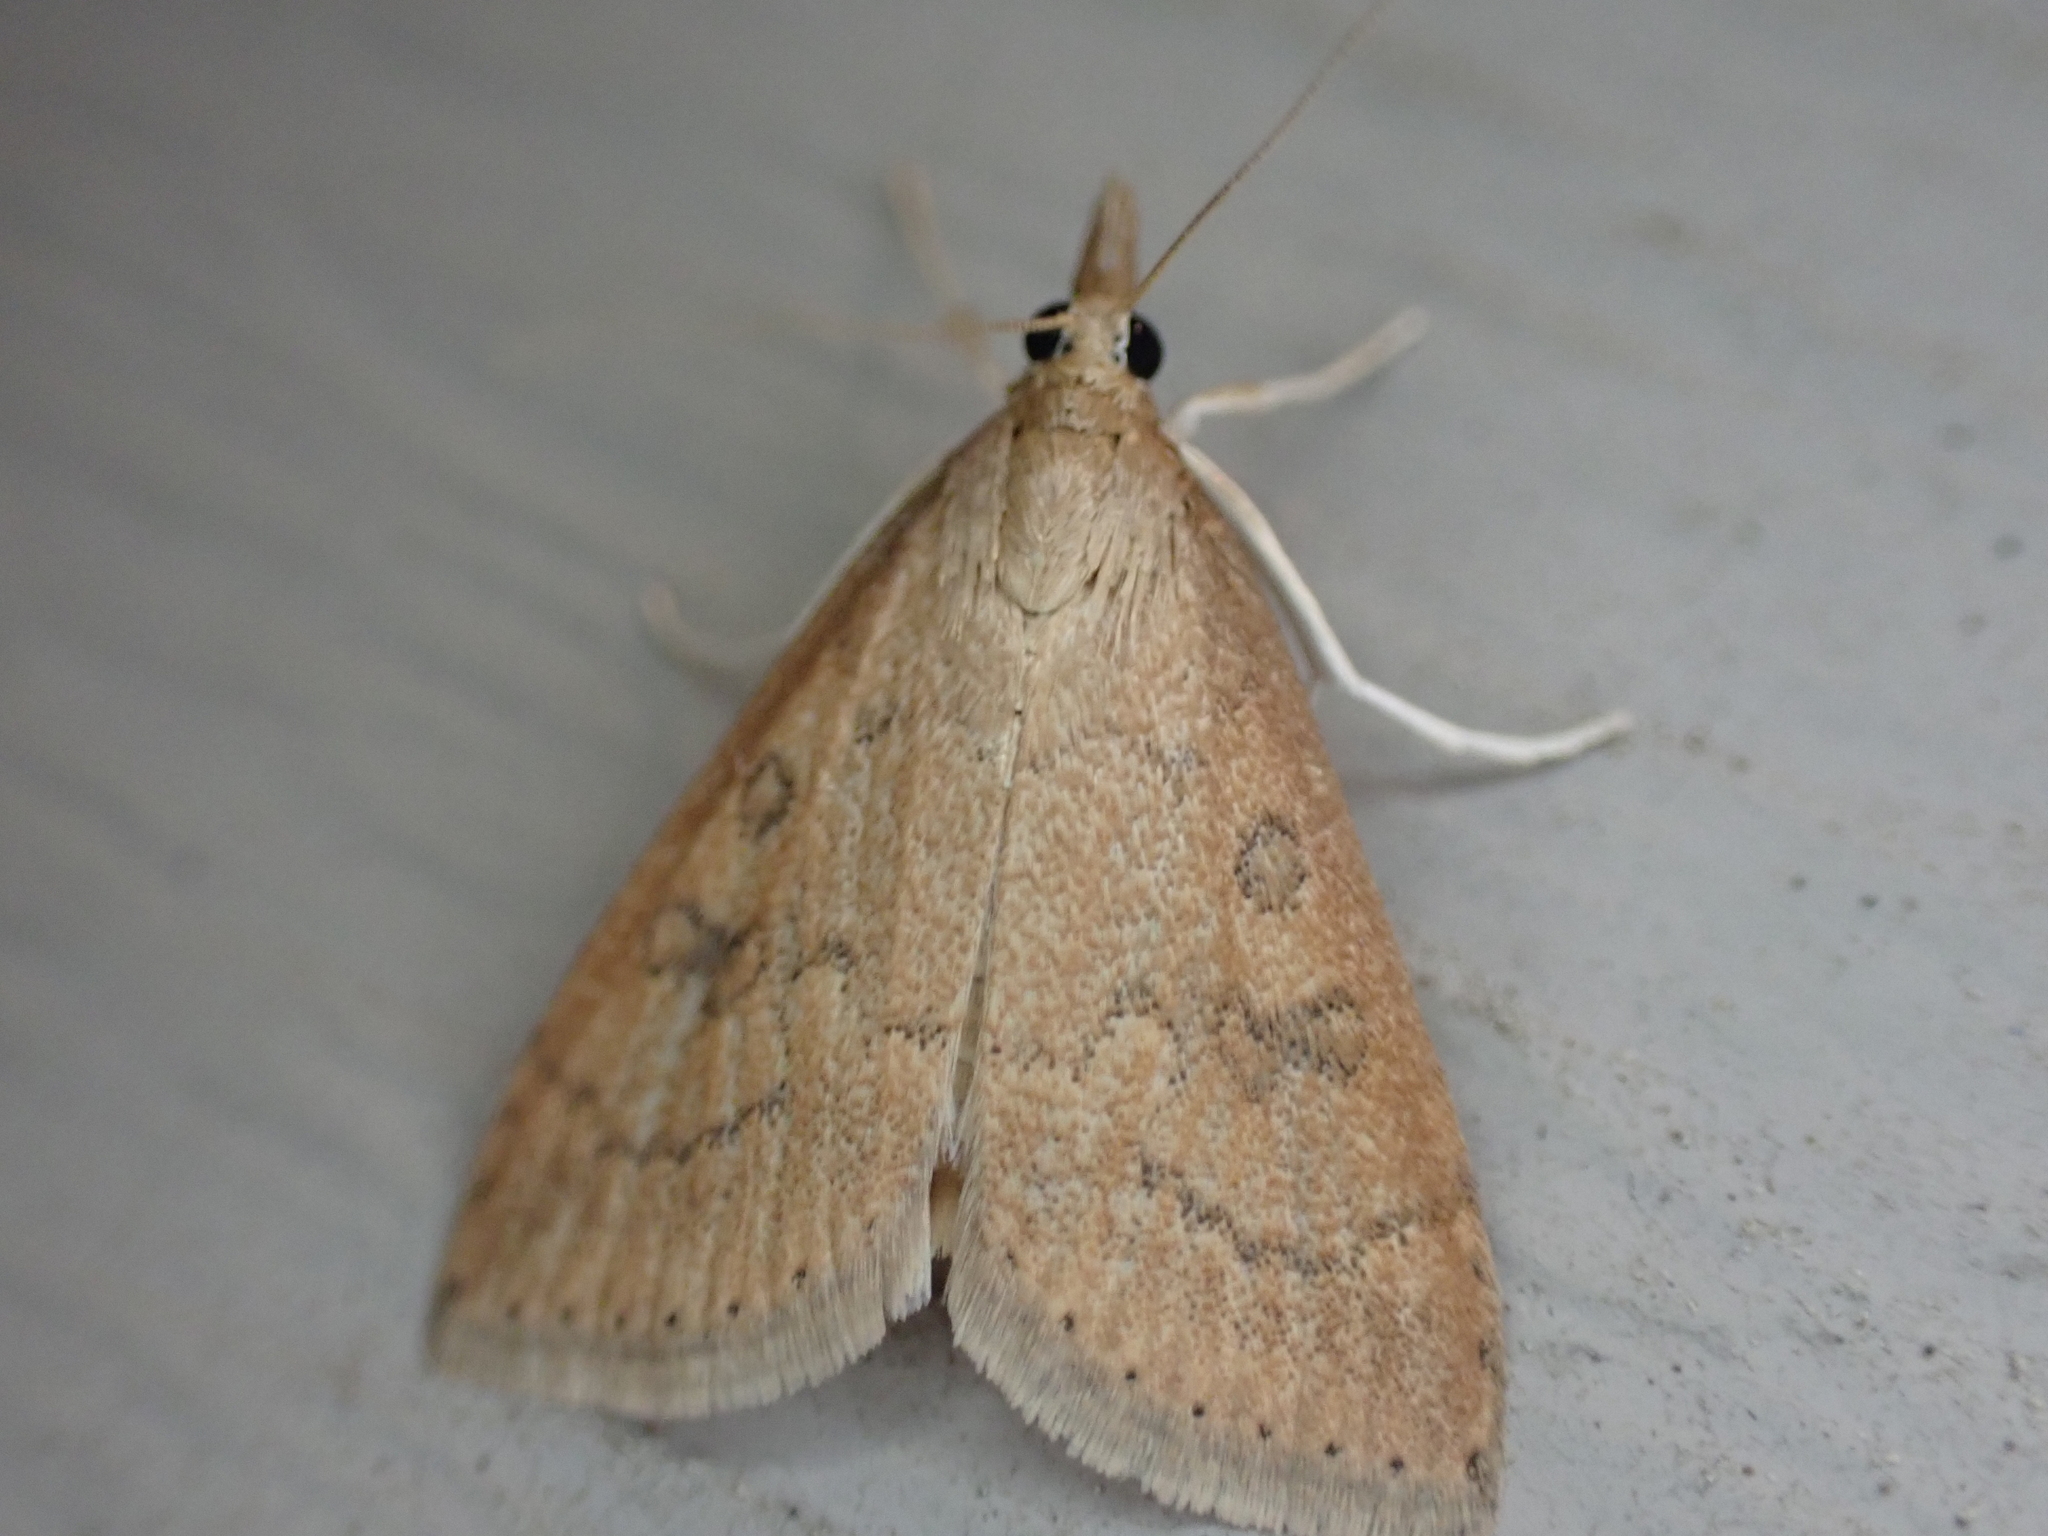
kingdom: Animalia
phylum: Arthropoda
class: Insecta
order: Lepidoptera
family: Crambidae
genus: Udea
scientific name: Udea rubigalis
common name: Celery leaftier moth
